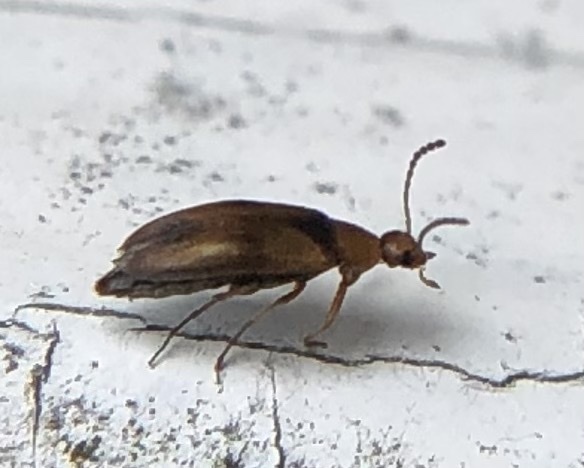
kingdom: Animalia
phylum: Arthropoda
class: Insecta
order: Coleoptera
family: Scraptiidae
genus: Anaspis
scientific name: Anaspis maculata
